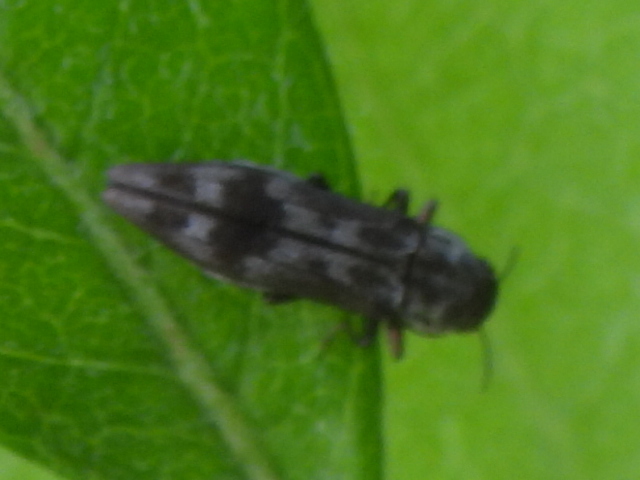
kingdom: Animalia
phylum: Arthropoda
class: Insecta
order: Coleoptera
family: Buprestidae
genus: Agrilus
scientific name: Agrilus lecontei
